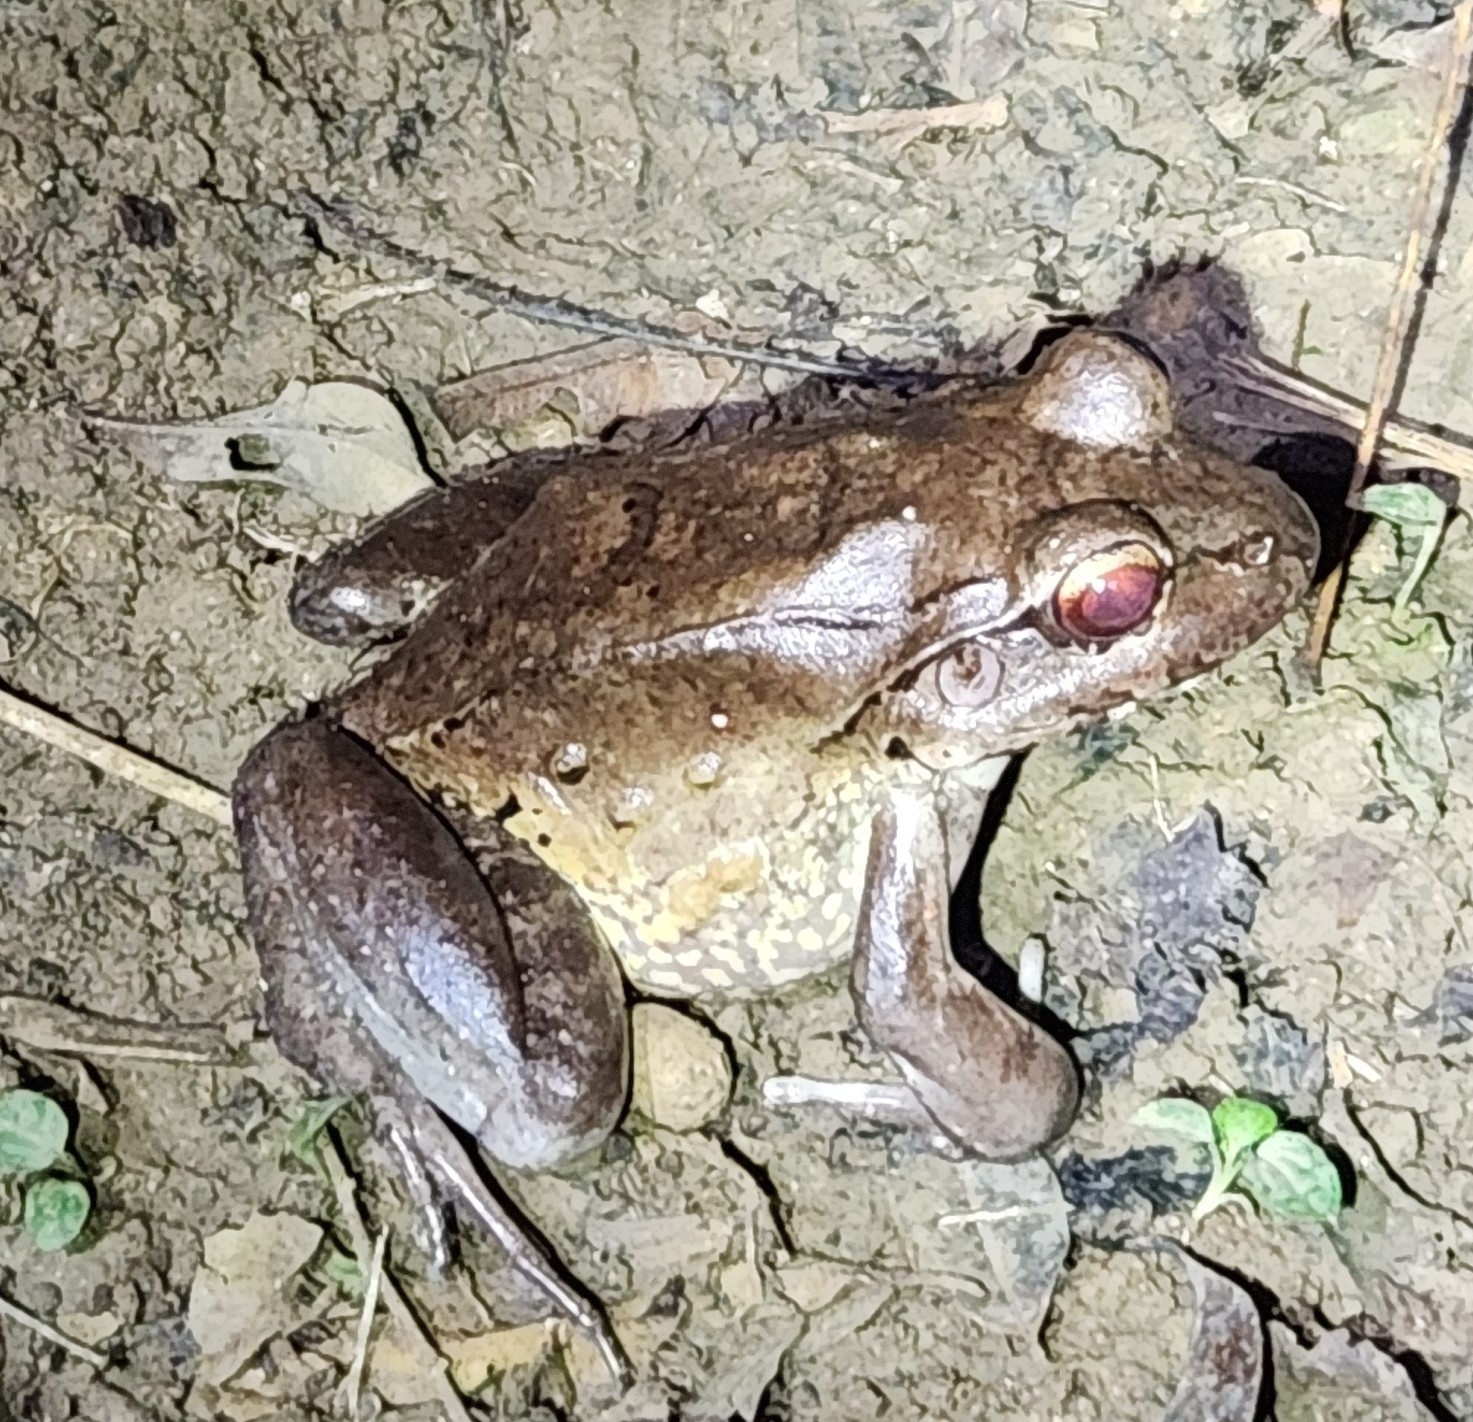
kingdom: Animalia
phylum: Chordata
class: Amphibia
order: Anura
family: Leptodactylidae
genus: Leptodactylus
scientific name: Leptodactylus savagei
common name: Savage's thin-toed frog
